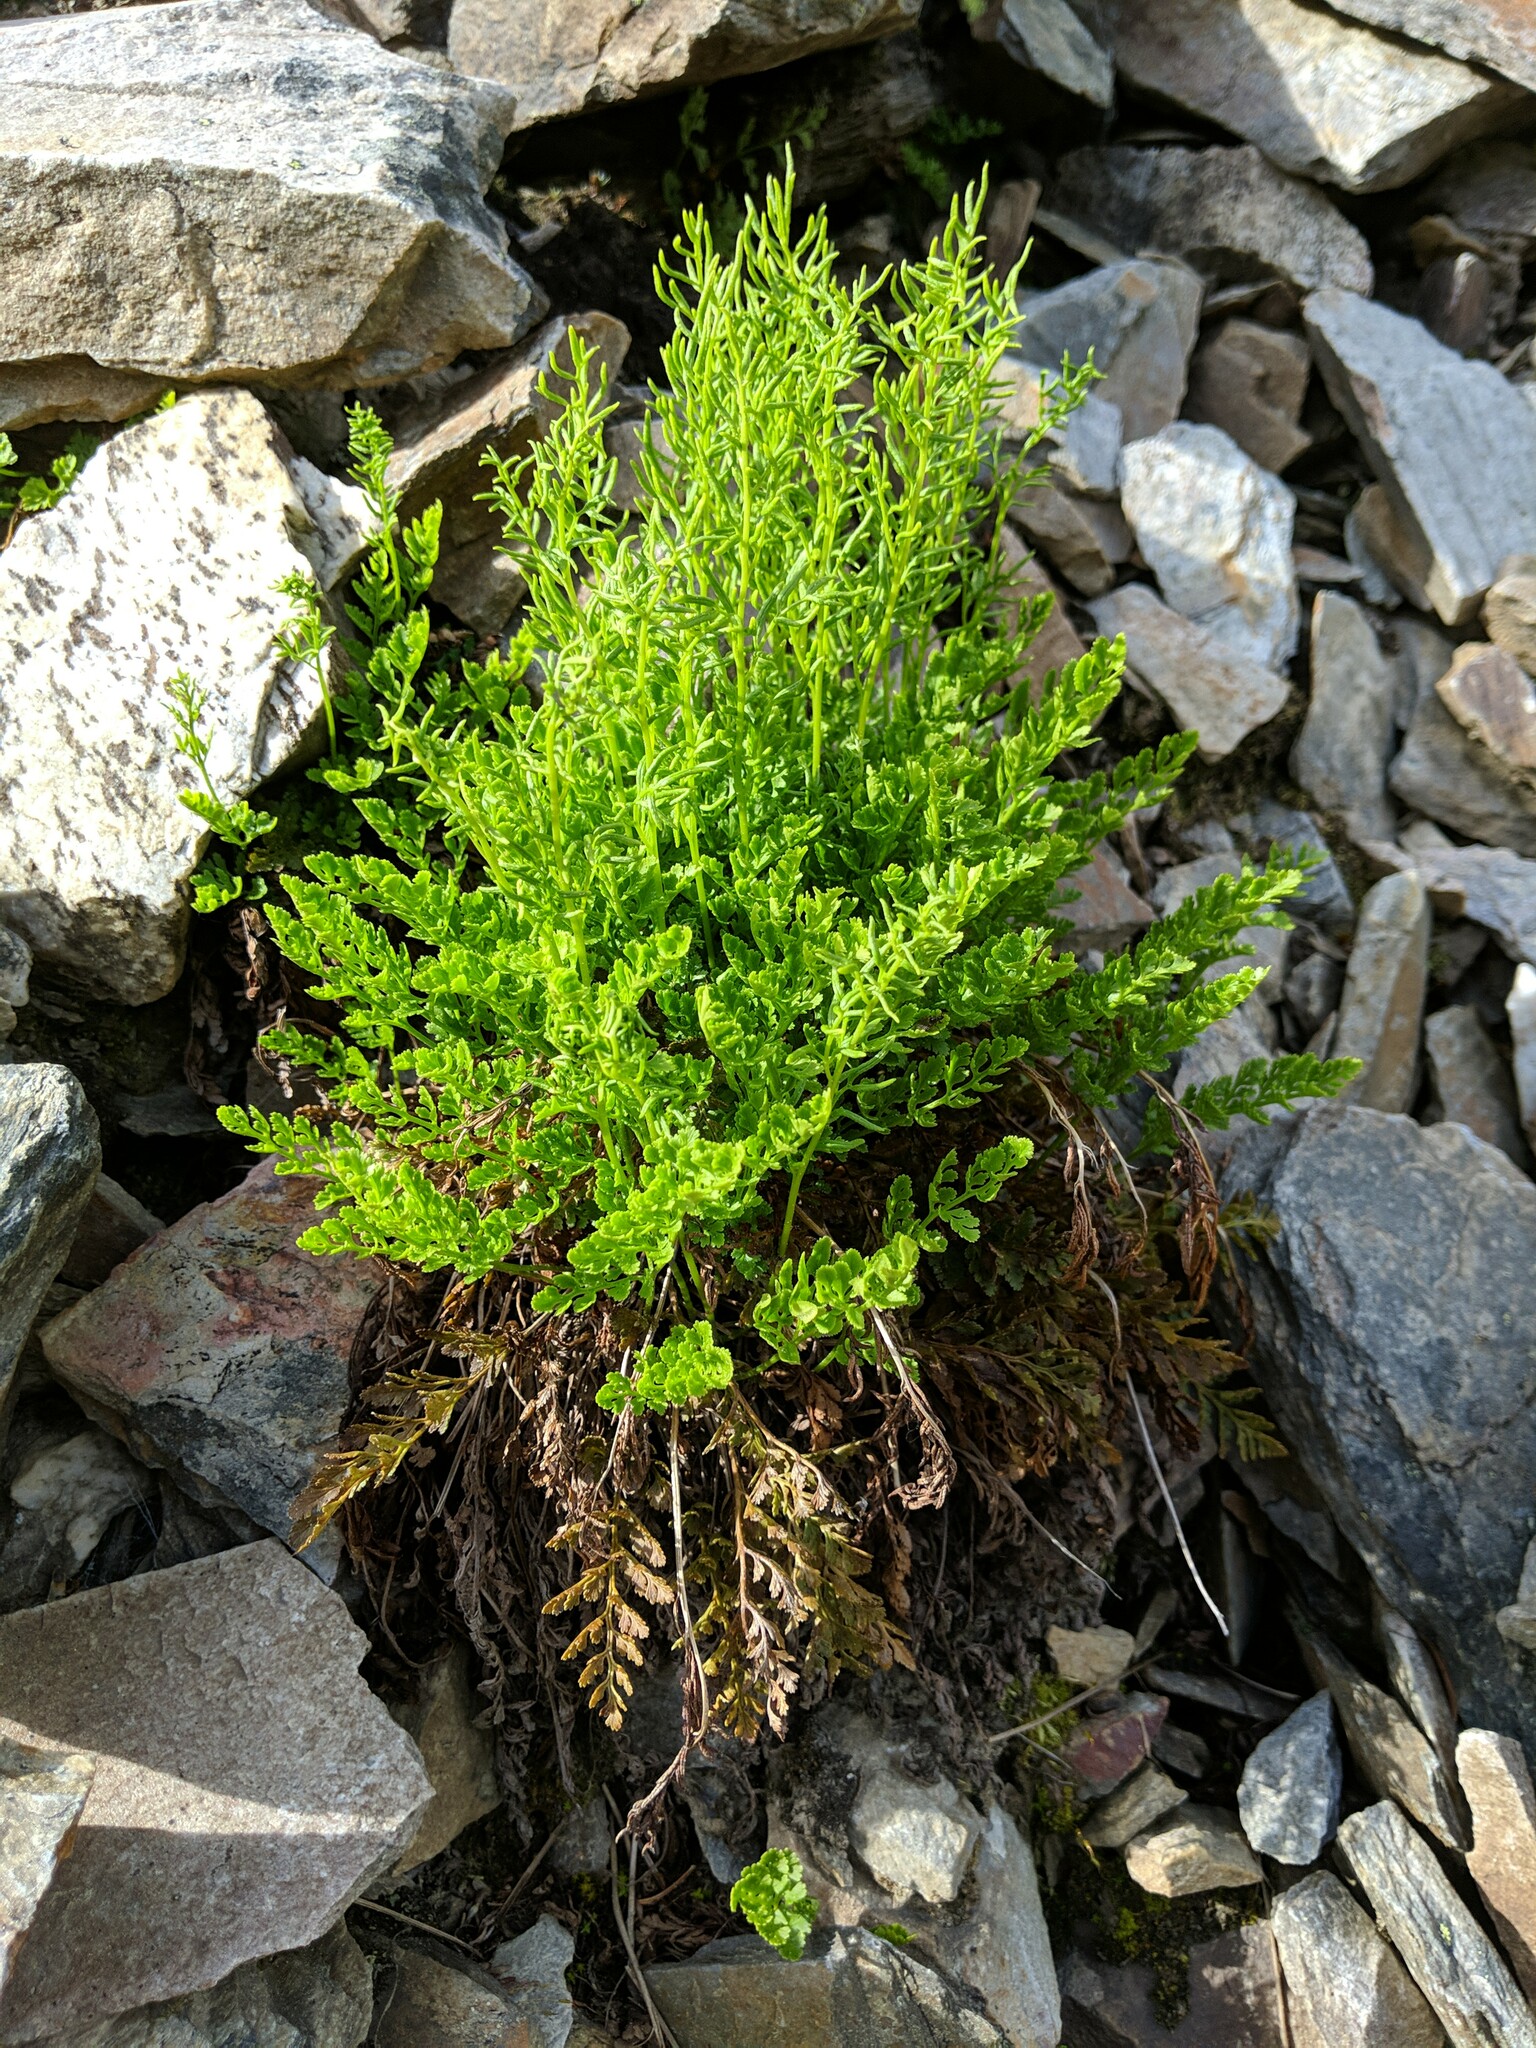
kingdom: Plantae
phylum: Tracheophyta
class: Polypodiopsida
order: Polypodiales
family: Pteridaceae
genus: Cryptogramma
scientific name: Cryptogramma acrostichoides
